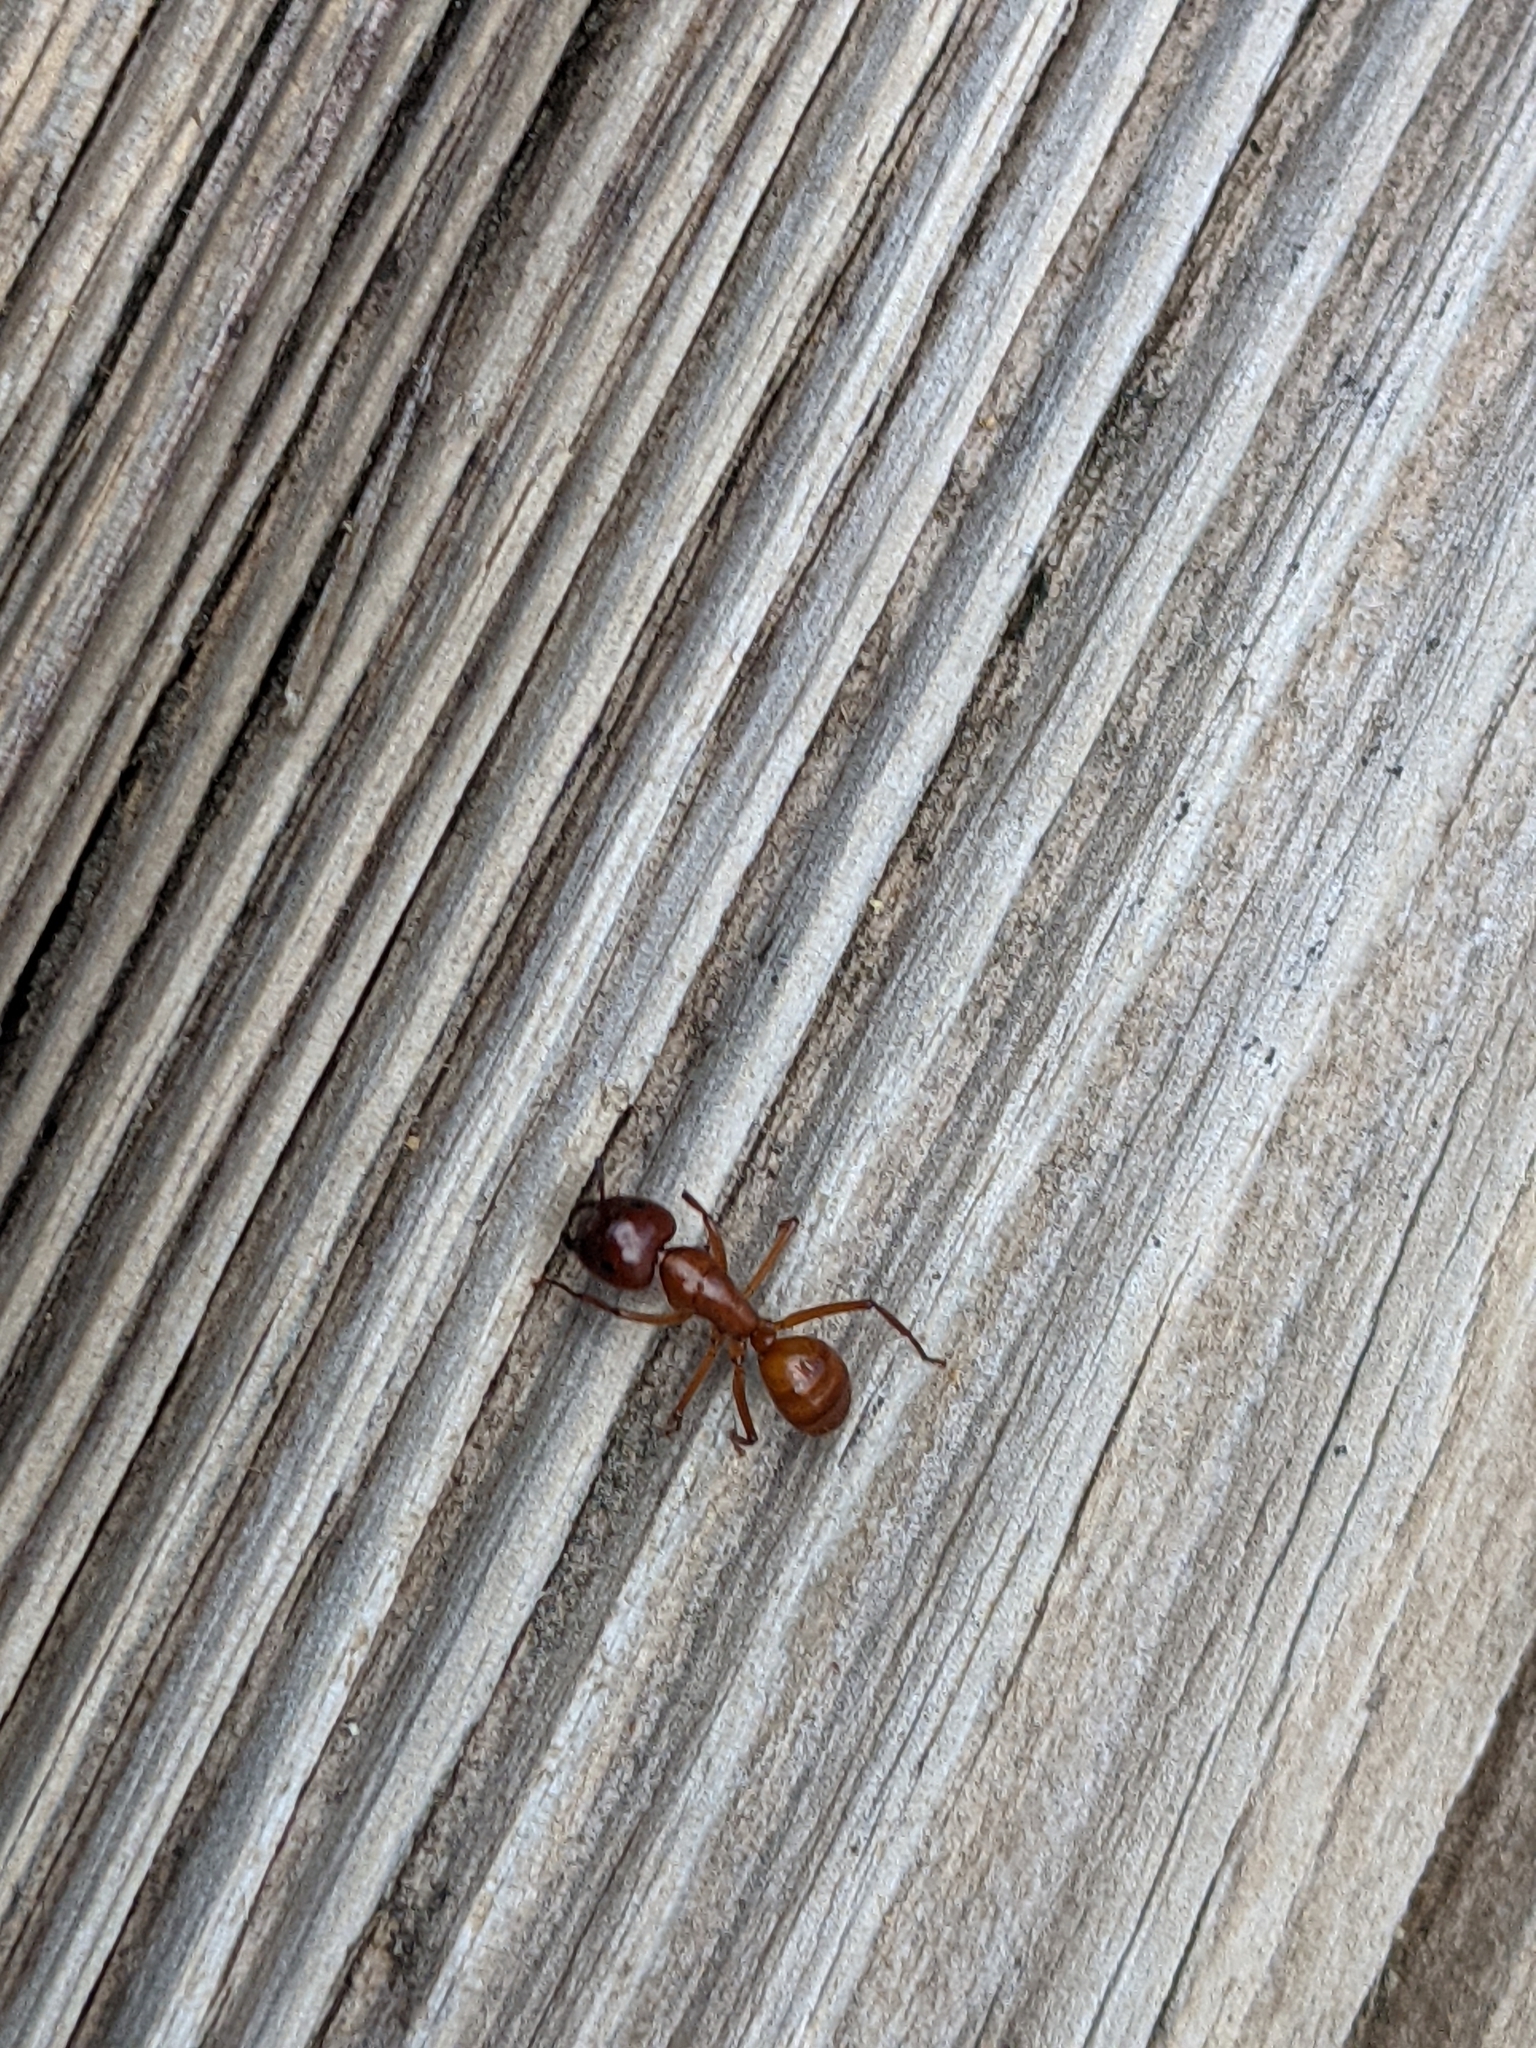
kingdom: Animalia
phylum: Arthropoda
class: Insecta
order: Hymenoptera
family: Formicidae
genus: Camponotus
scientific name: Camponotus castaneus
